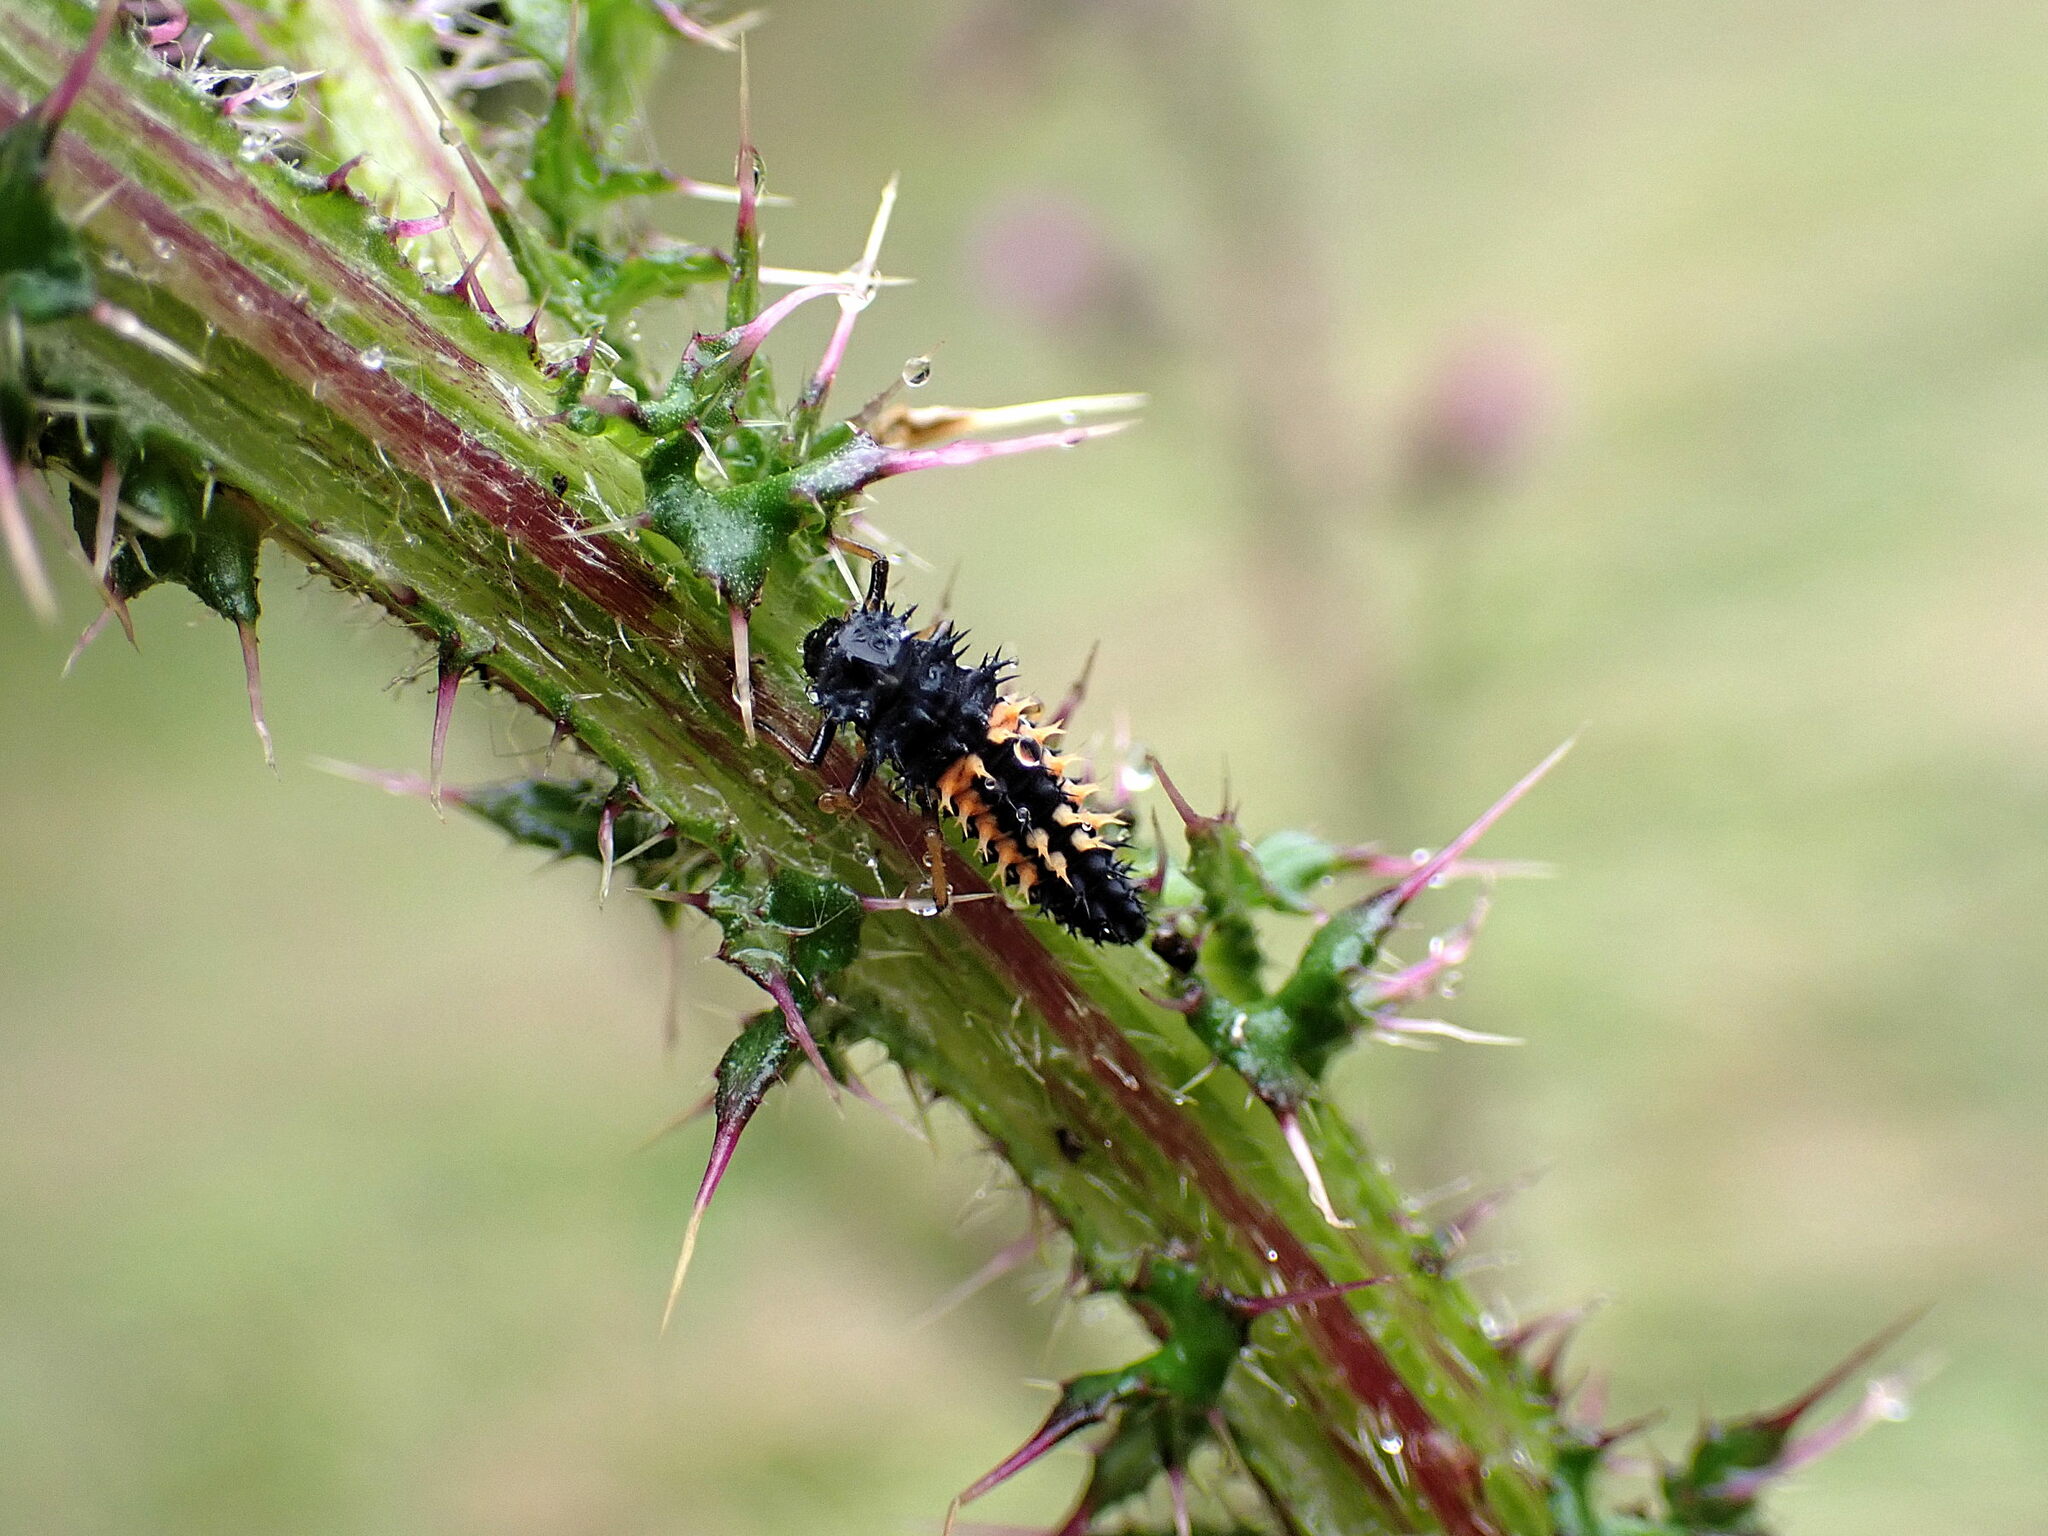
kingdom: Animalia
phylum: Arthropoda
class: Insecta
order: Coleoptera
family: Coccinellidae
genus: Harmonia
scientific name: Harmonia axyridis
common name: Harlequin ladybird
